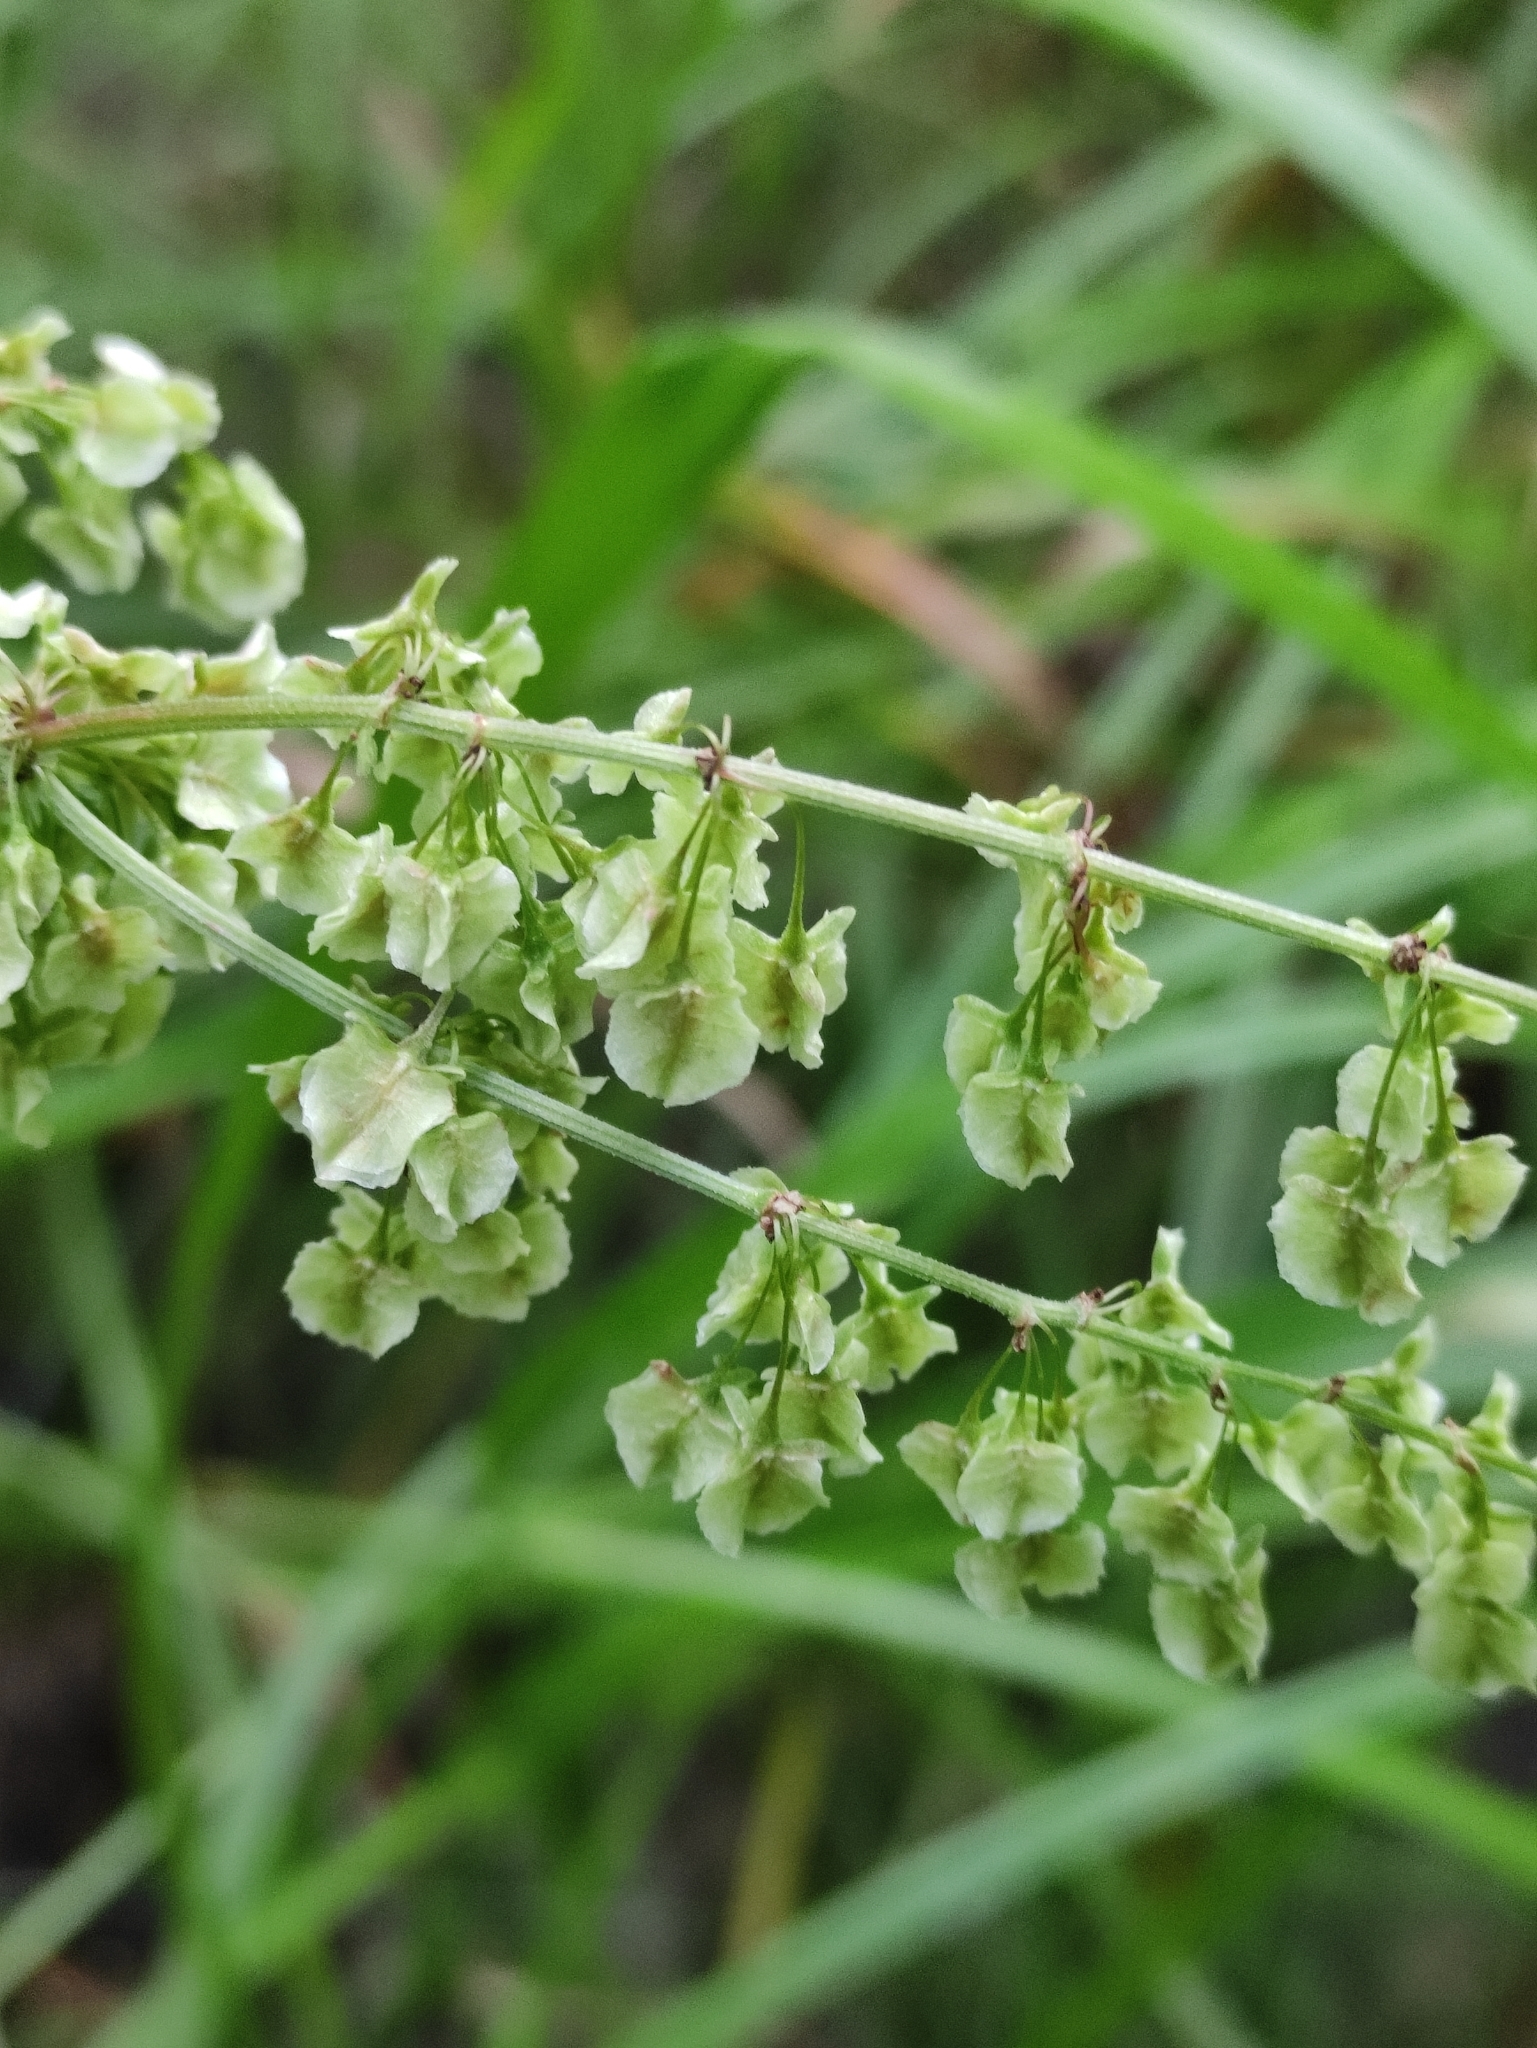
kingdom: Plantae
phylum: Tracheophyta
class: Magnoliopsida
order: Caryophyllales
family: Polygonaceae
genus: Rumex
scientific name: Rumex aquaticus
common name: Scottish dock
